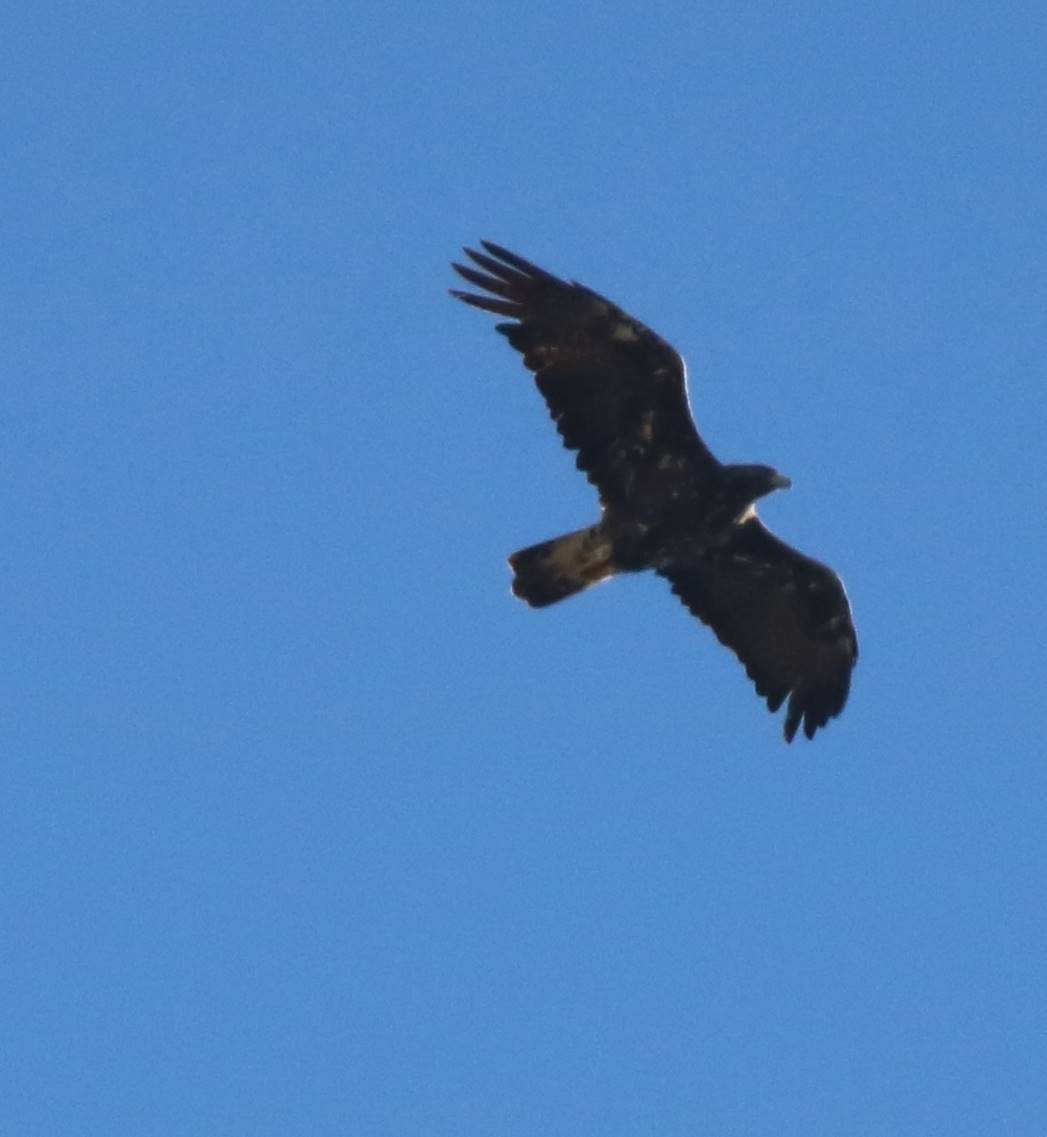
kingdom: Animalia
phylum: Chordata
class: Aves
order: Accipitriformes
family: Accipitridae
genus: Aquila
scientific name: Aquila chrysaetos
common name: Golden eagle
